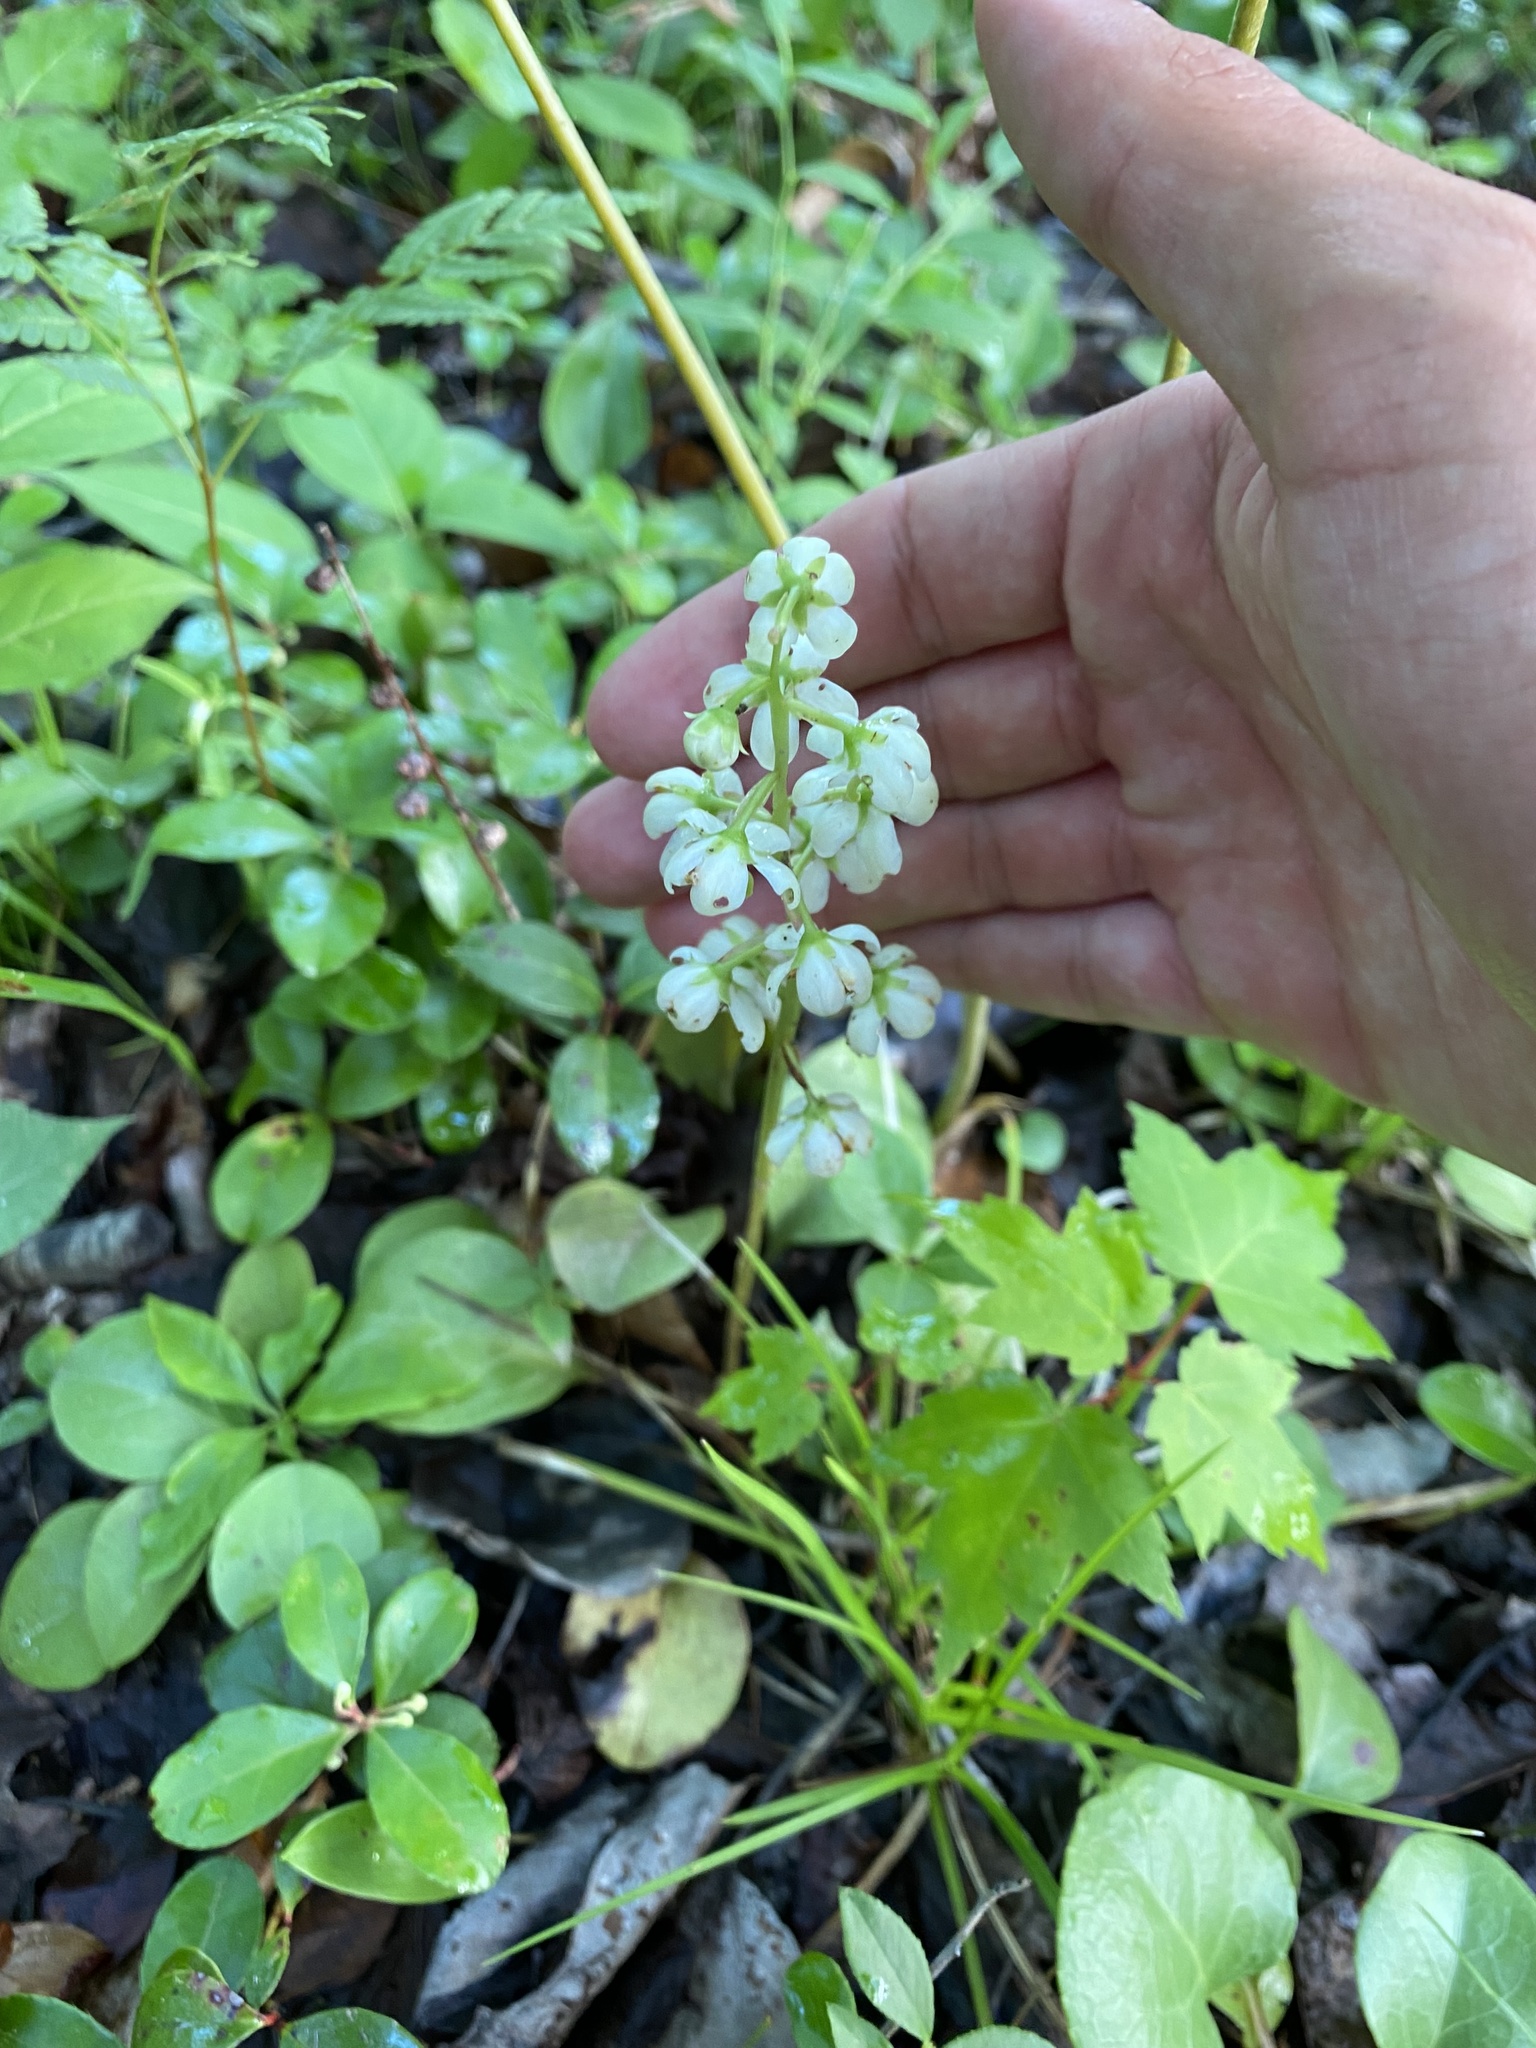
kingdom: Plantae
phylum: Tracheophyta
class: Magnoliopsida
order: Ericales
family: Ericaceae
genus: Pyrola
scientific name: Pyrola americana
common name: American wintergreen
